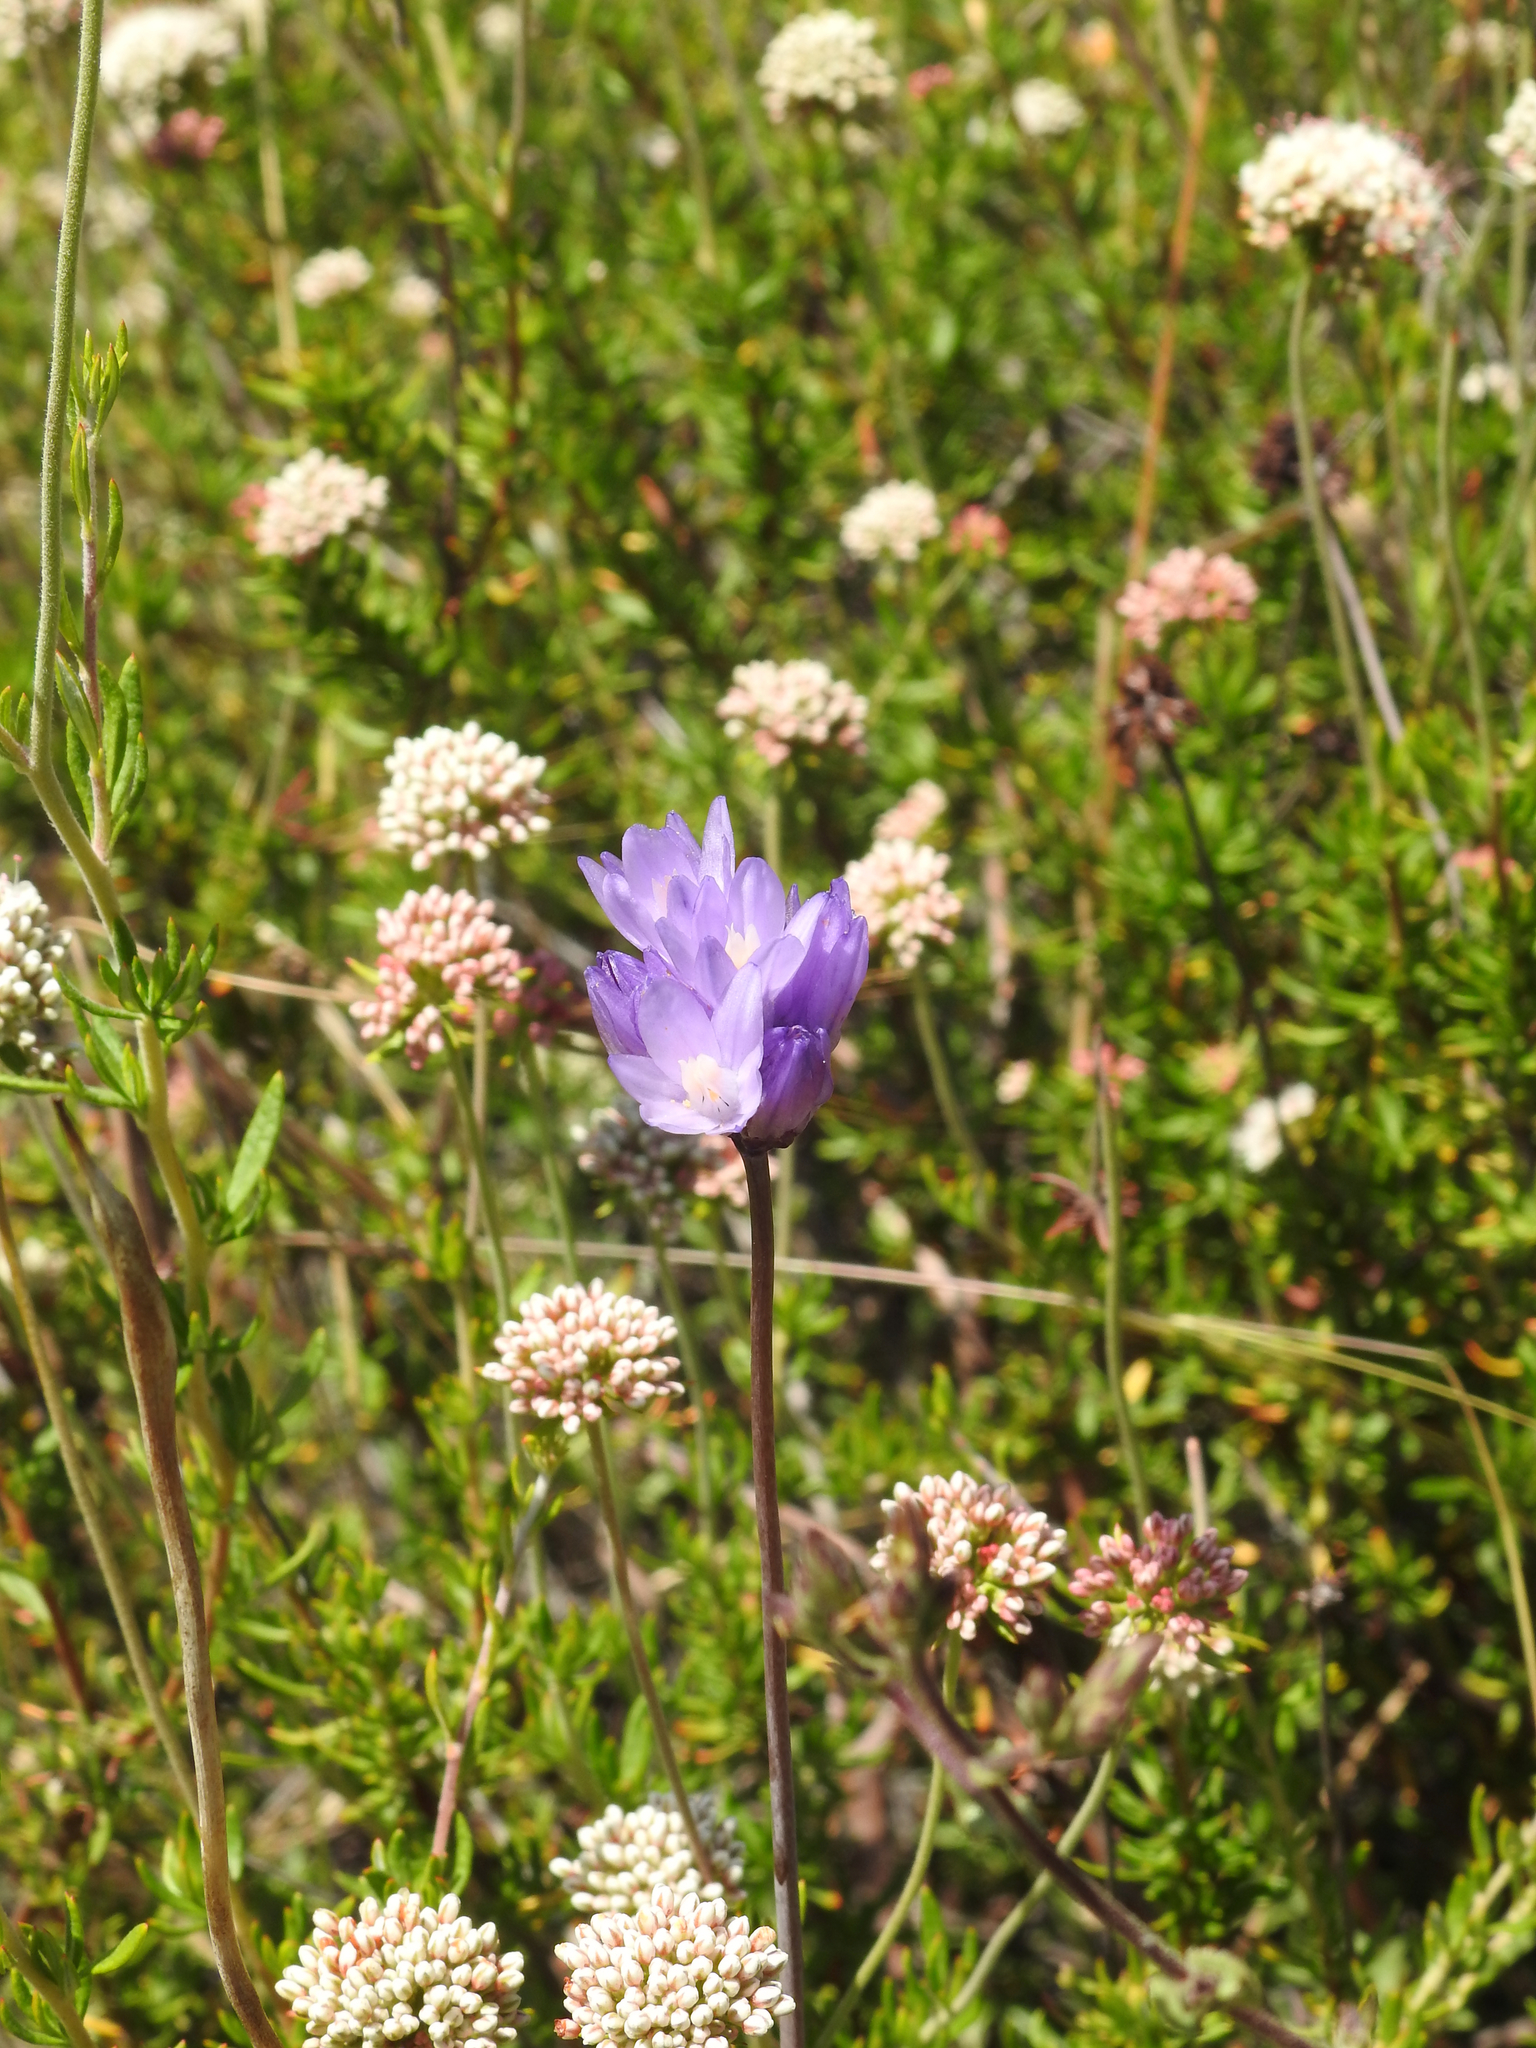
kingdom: Plantae
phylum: Tracheophyta
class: Liliopsida
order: Asparagales
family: Asparagaceae
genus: Dipterostemon
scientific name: Dipterostemon capitatus
